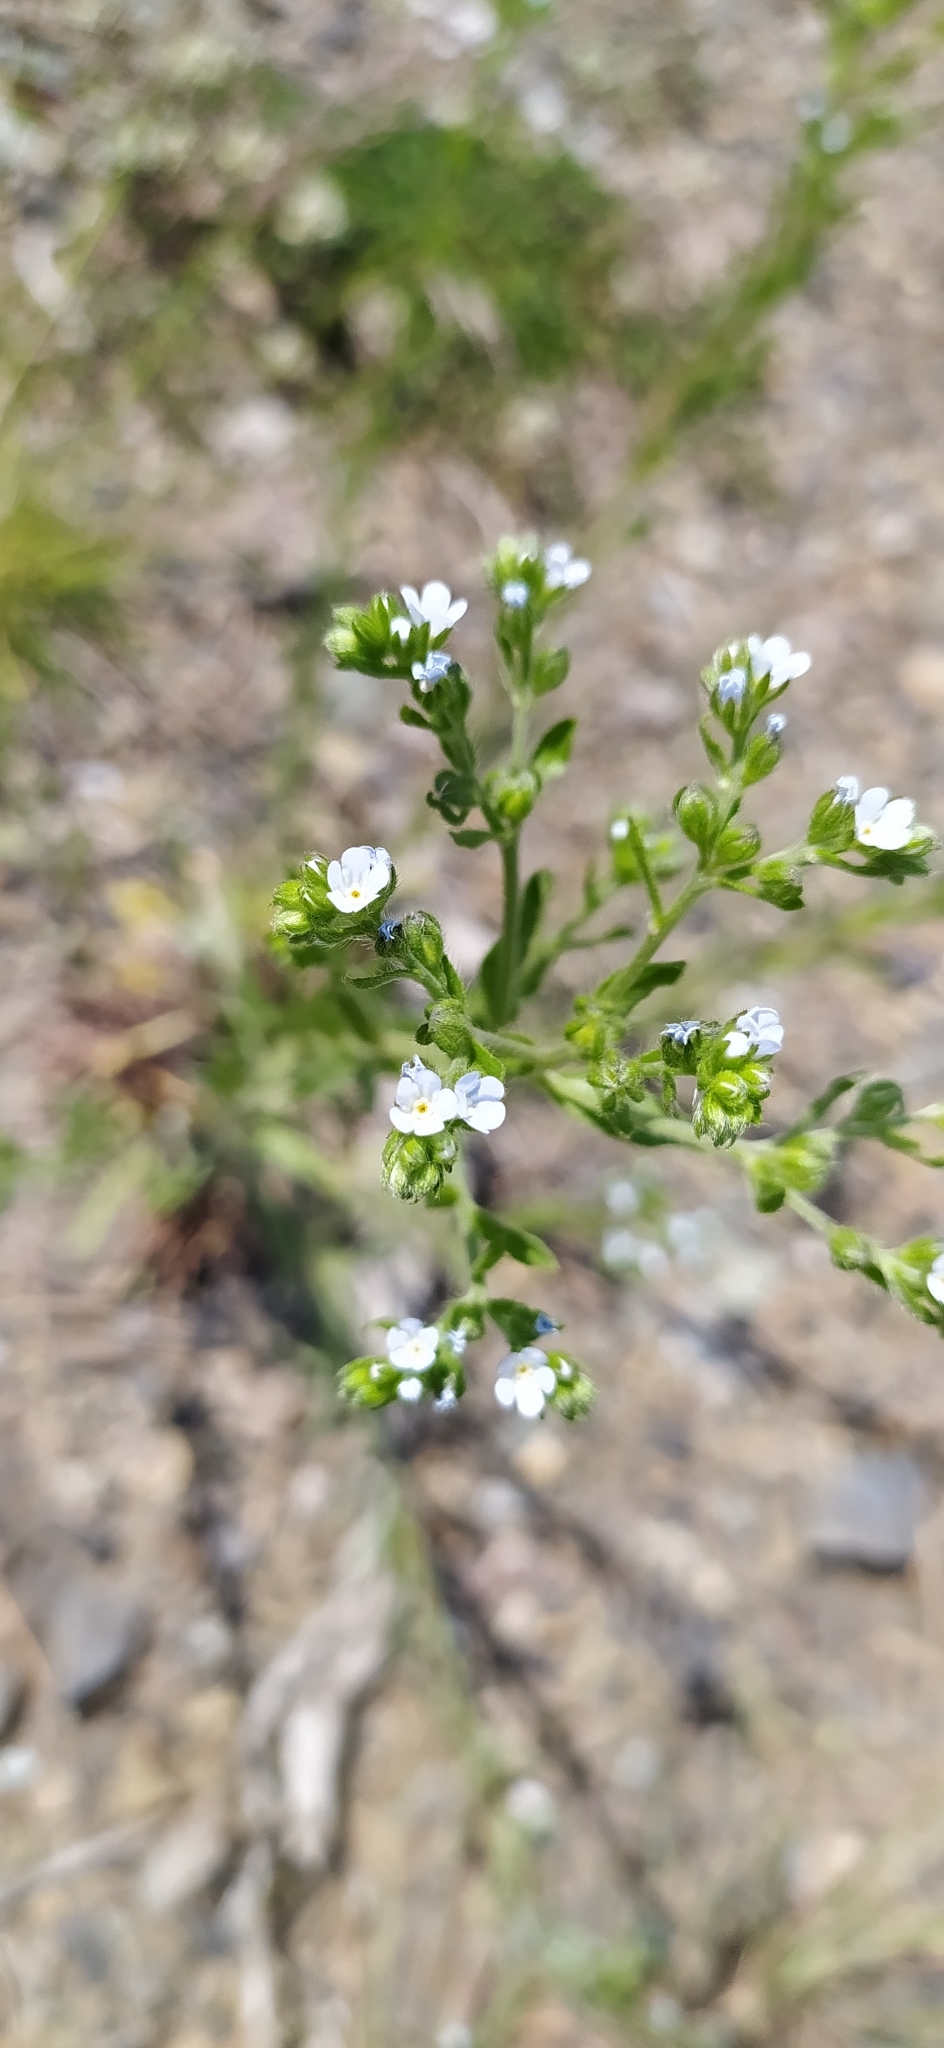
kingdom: Plantae
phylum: Tracheophyta
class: Magnoliopsida
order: Boraginales
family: Boraginaceae
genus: Lappula
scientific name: Lappula squarrosa
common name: European stickseed
